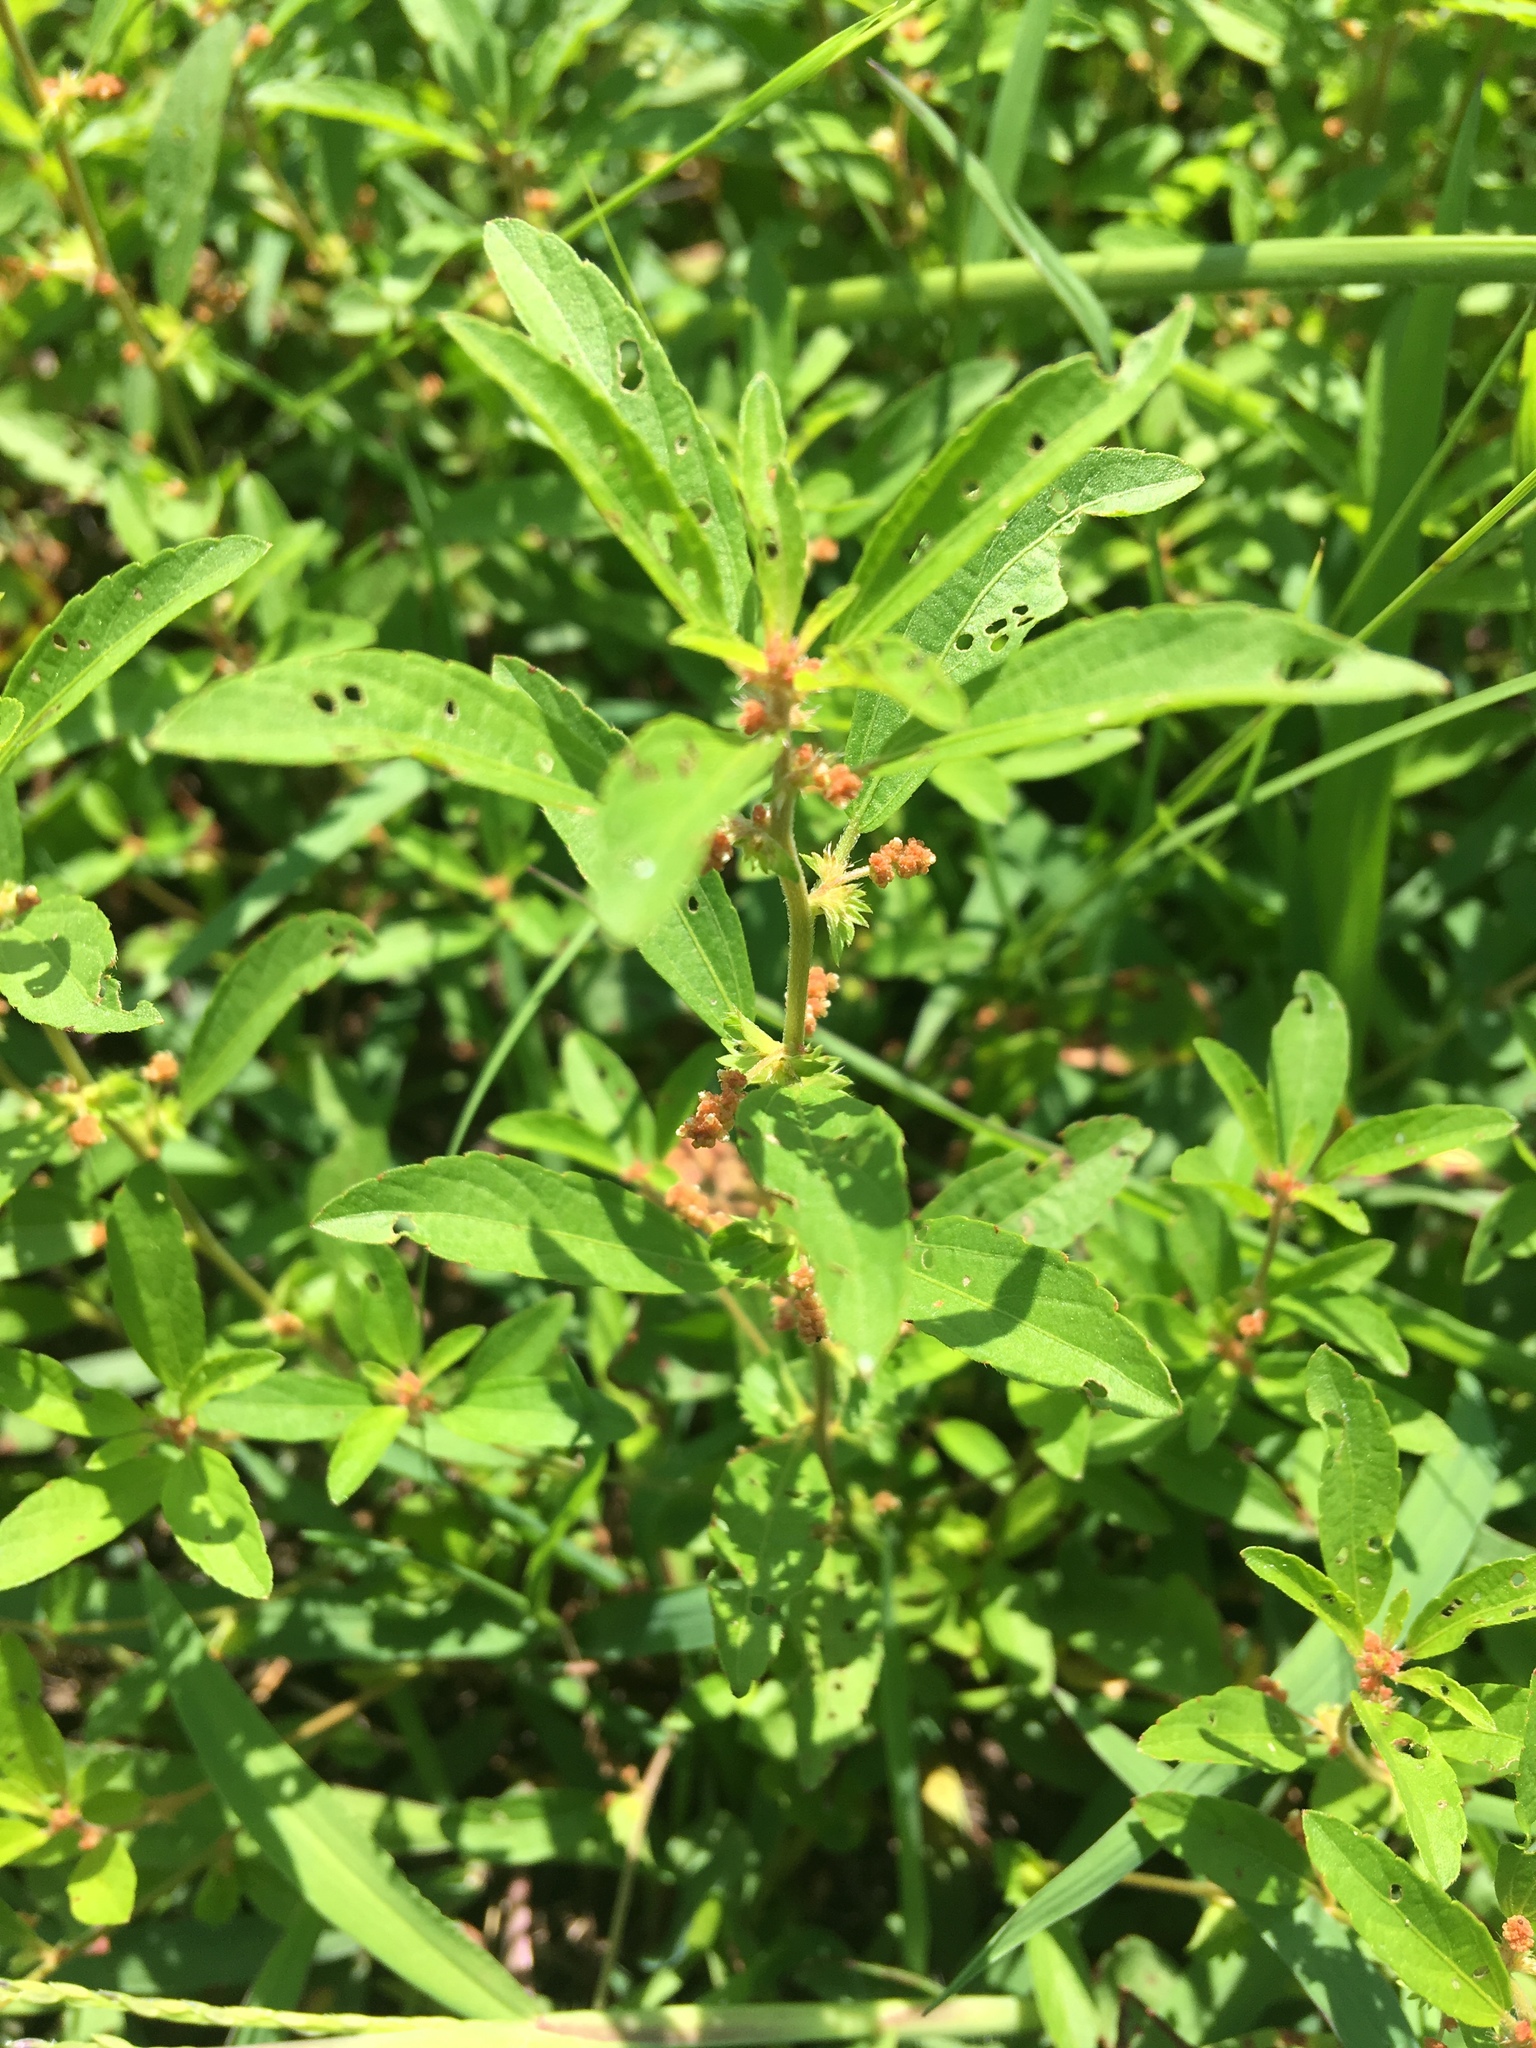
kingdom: Plantae
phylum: Tracheophyta
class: Magnoliopsida
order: Malpighiales
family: Euphorbiaceae
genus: Acalypha
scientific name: Acalypha gracilens
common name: Slender three-seeded mercury
